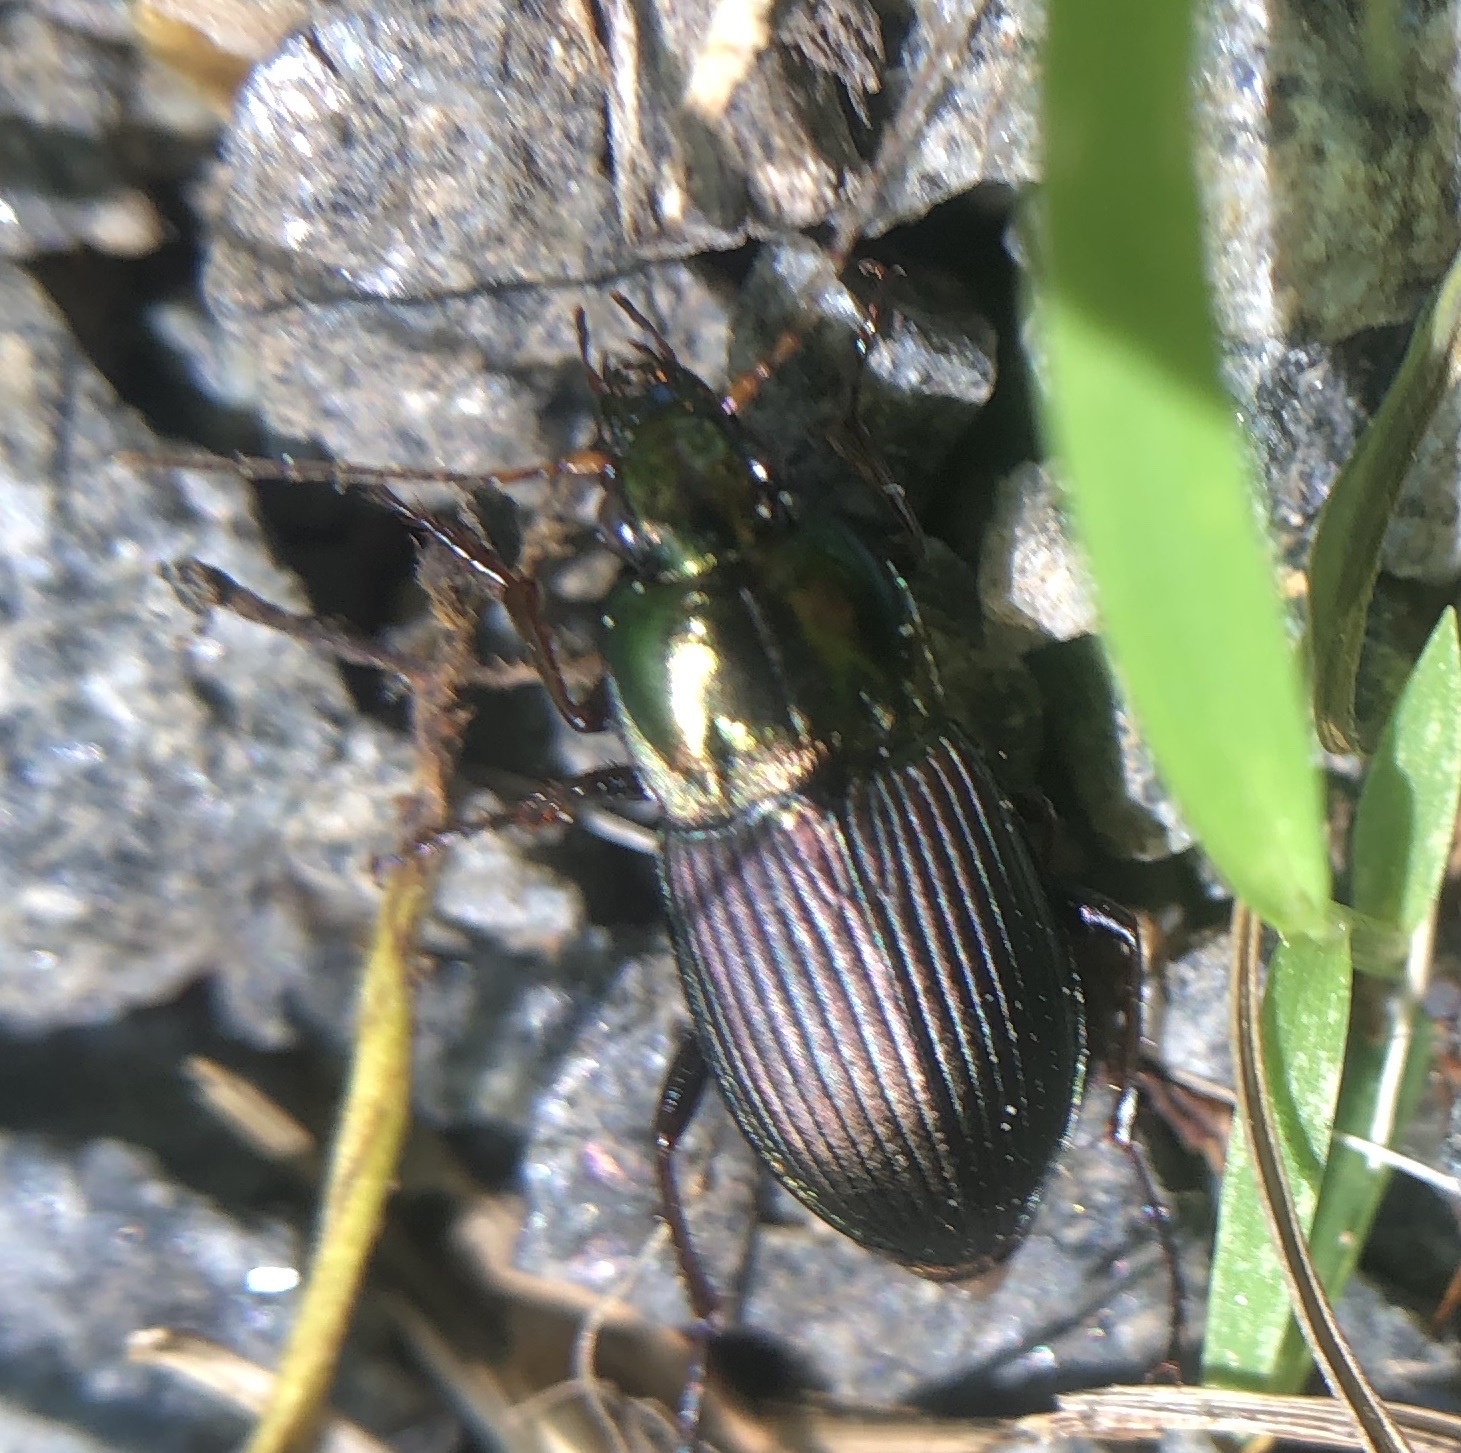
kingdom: Animalia
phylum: Arthropoda
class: Insecta
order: Coleoptera
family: Carabidae
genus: Poecilus
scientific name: Poecilus lucublandus
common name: Woodland ground beetle
